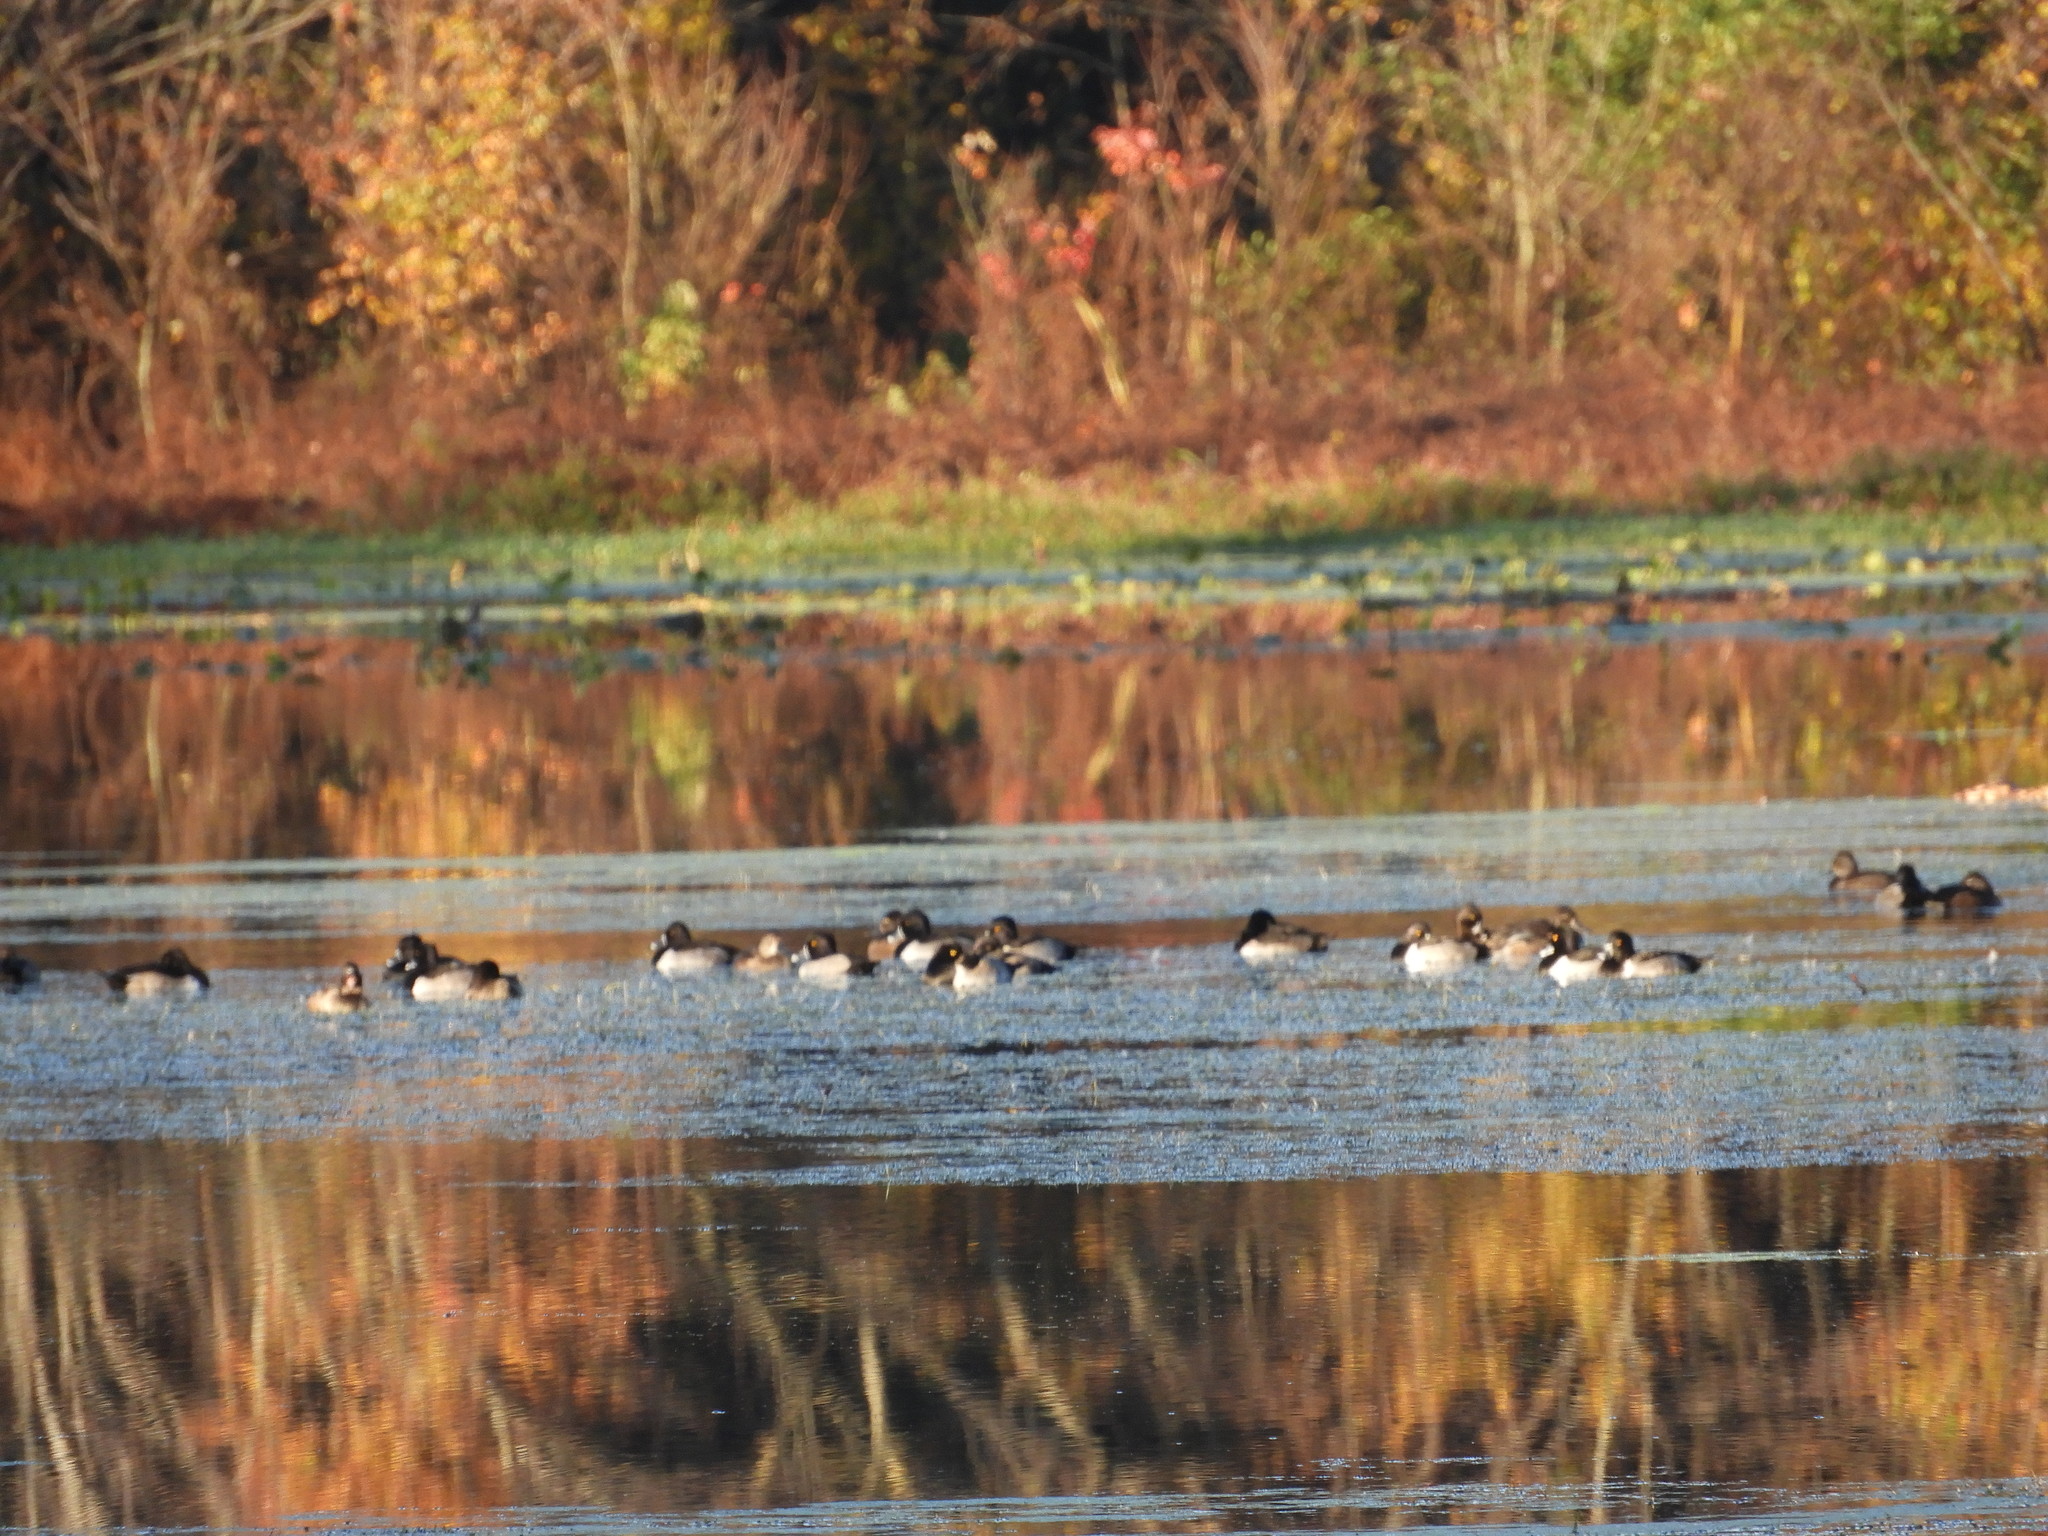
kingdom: Animalia
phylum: Chordata
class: Aves
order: Anseriformes
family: Anatidae
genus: Aythya
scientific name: Aythya collaris
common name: Ring-necked duck
